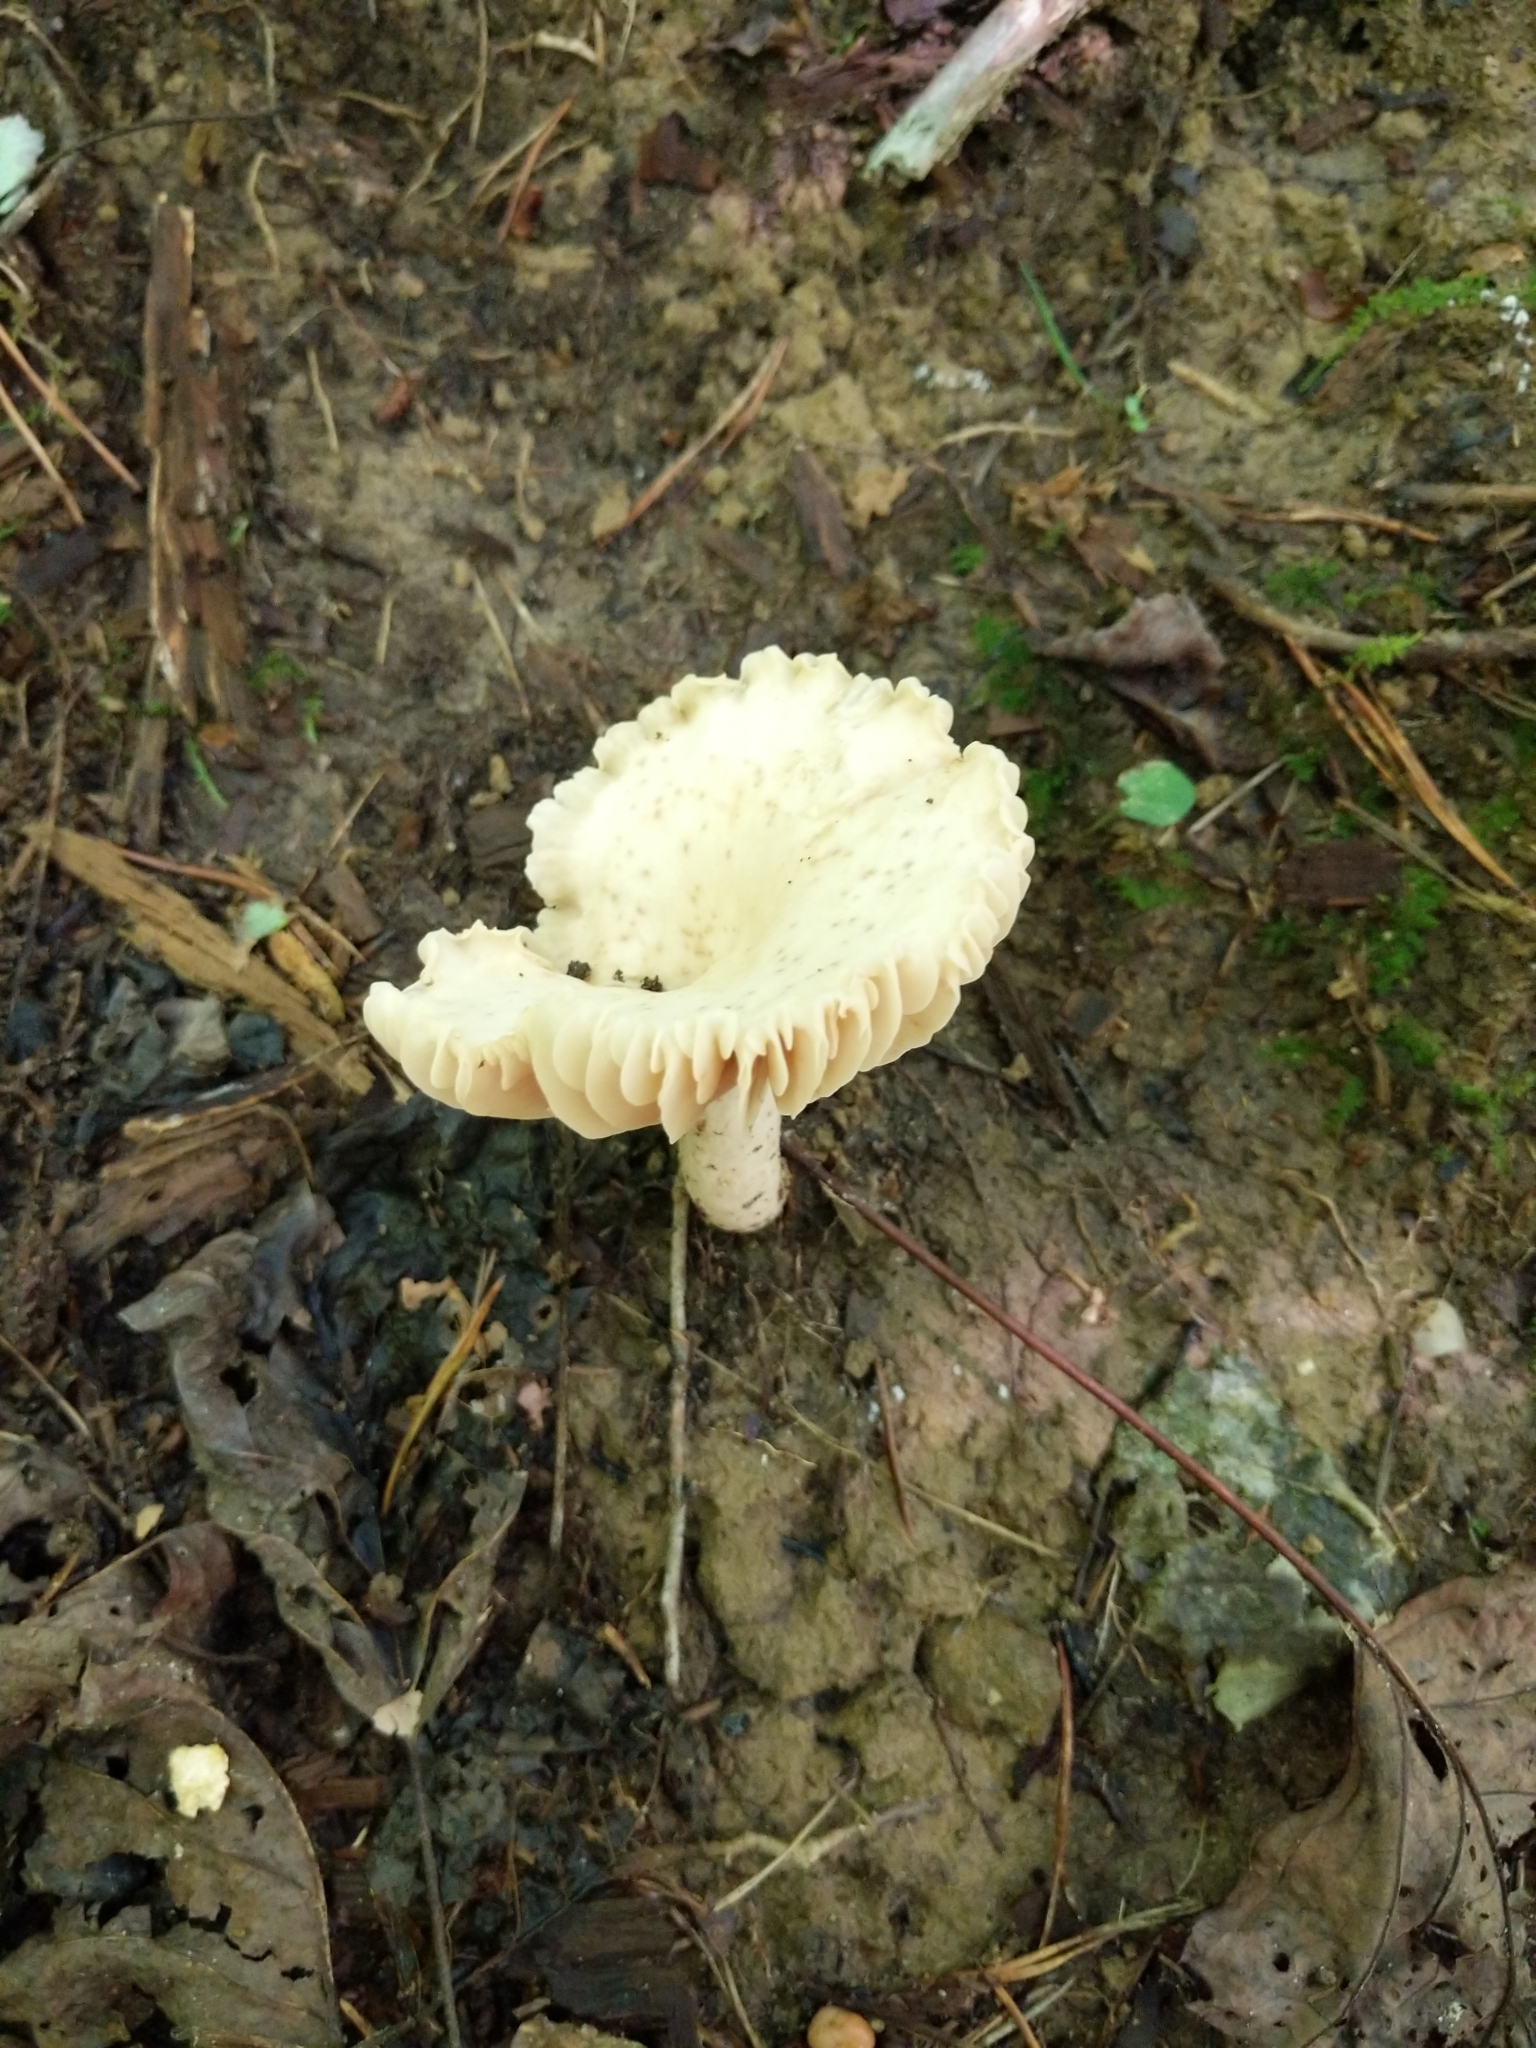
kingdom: Fungi
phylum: Basidiomycota
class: Agaricomycetes
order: Russulales
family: Russulaceae
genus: Russula
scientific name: Russula earlei
